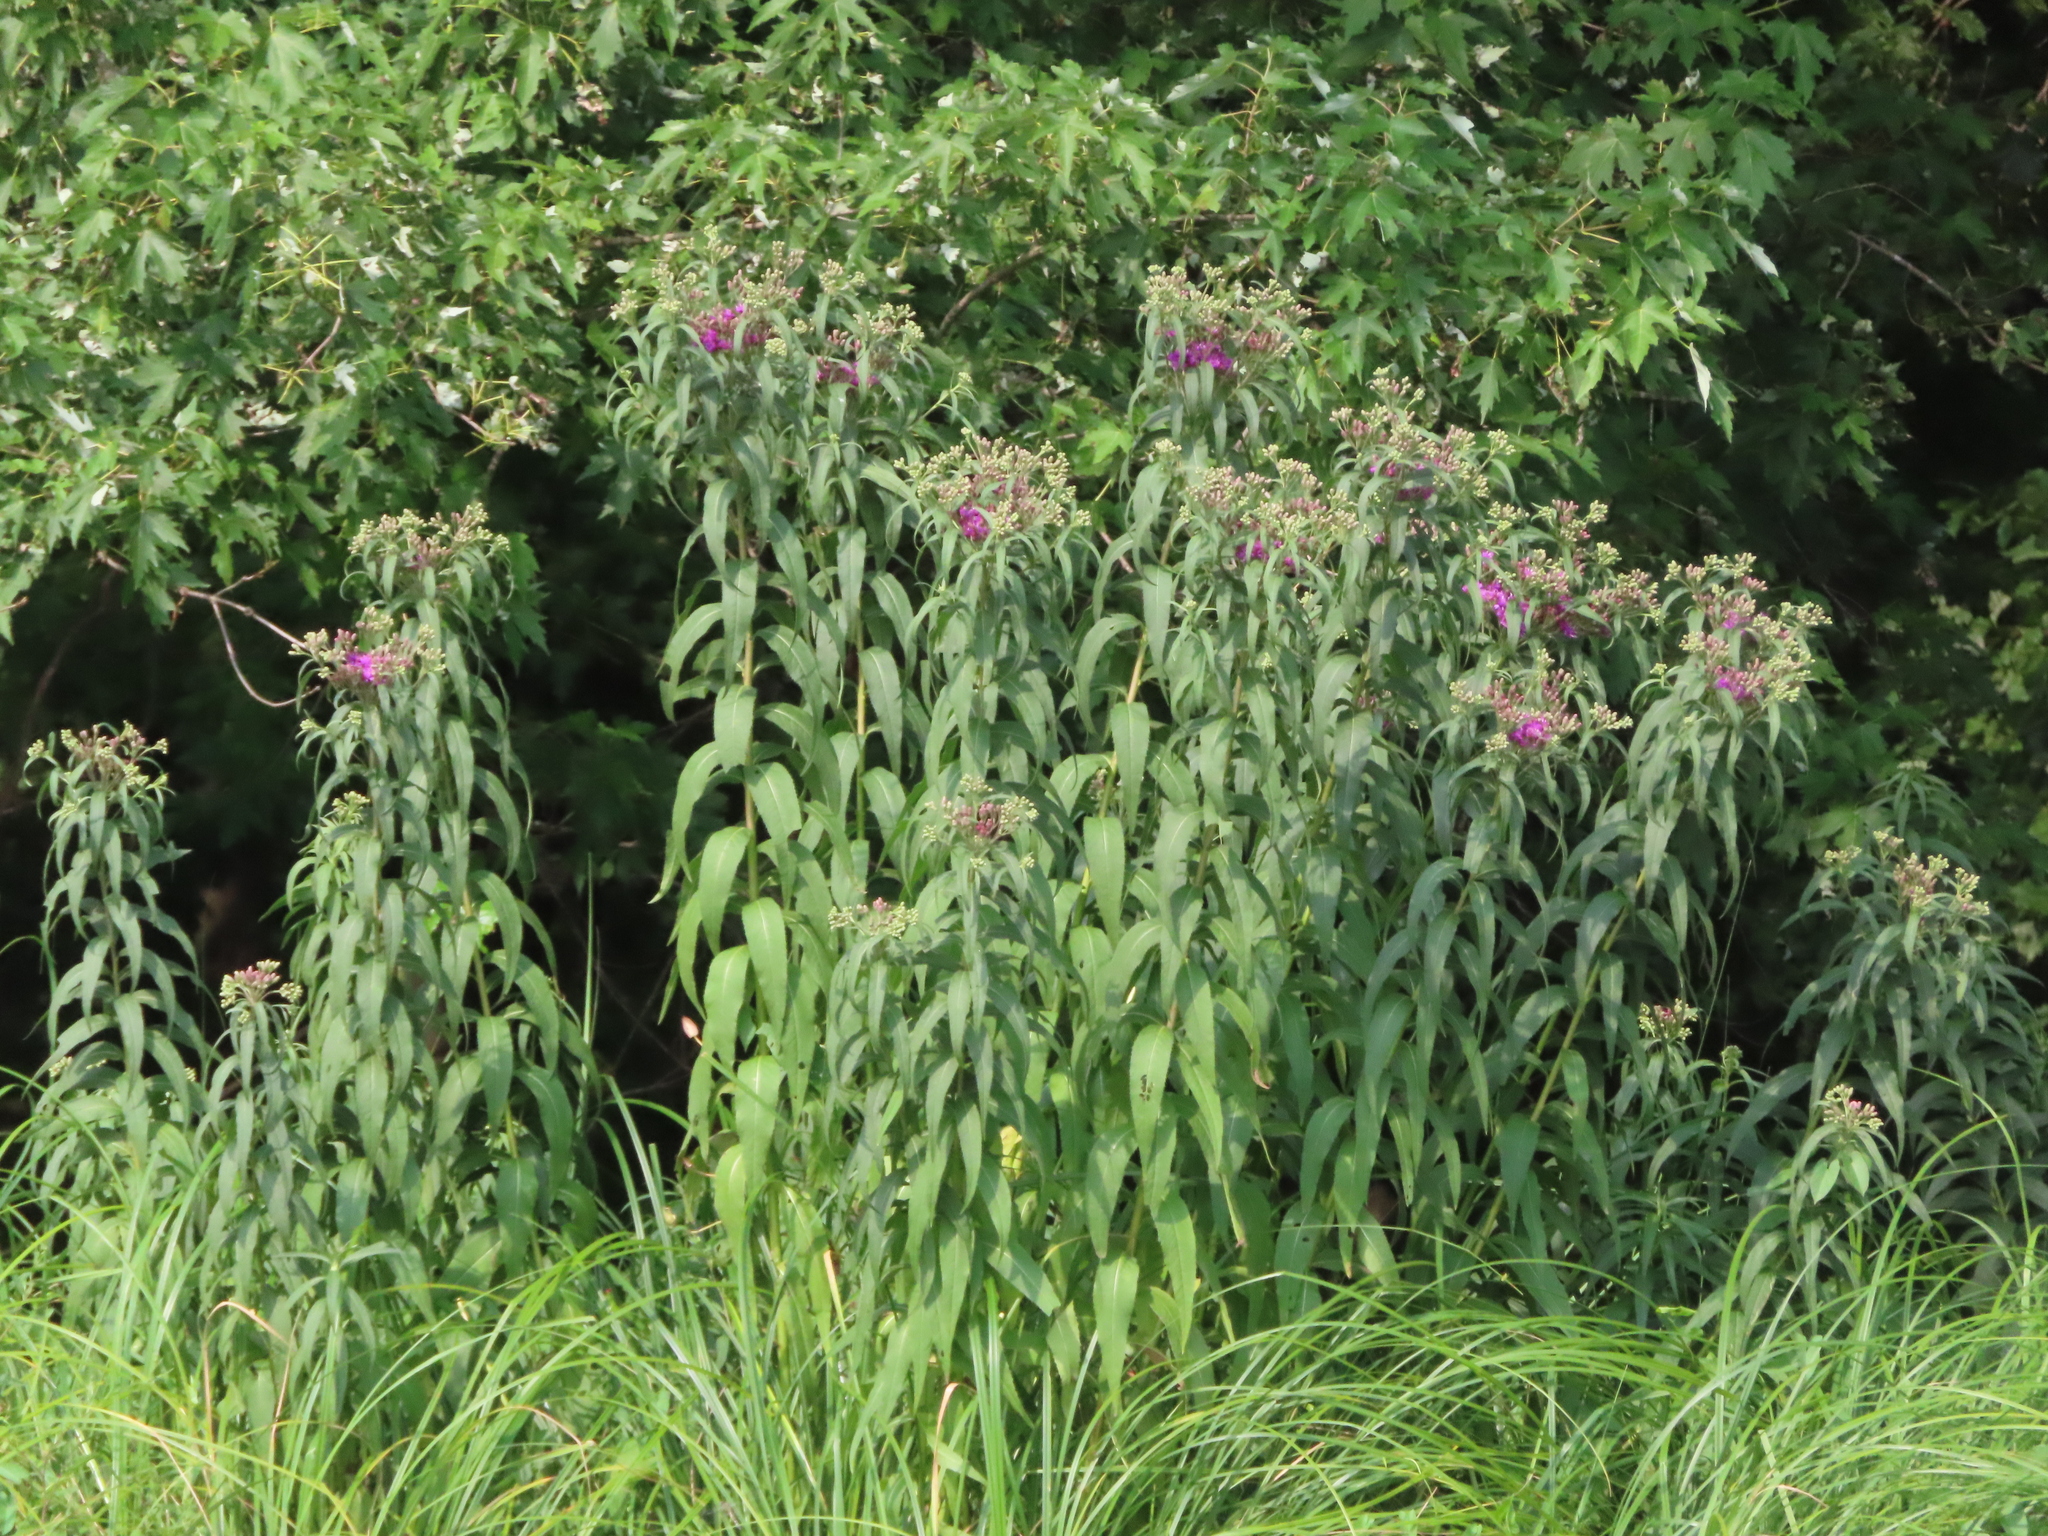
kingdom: Plantae
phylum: Tracheophyta
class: Magnoliopsida
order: Asterales
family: Asteraceae
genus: Vernonia
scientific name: Vernonia fasciculata
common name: Fascicled ironweed
